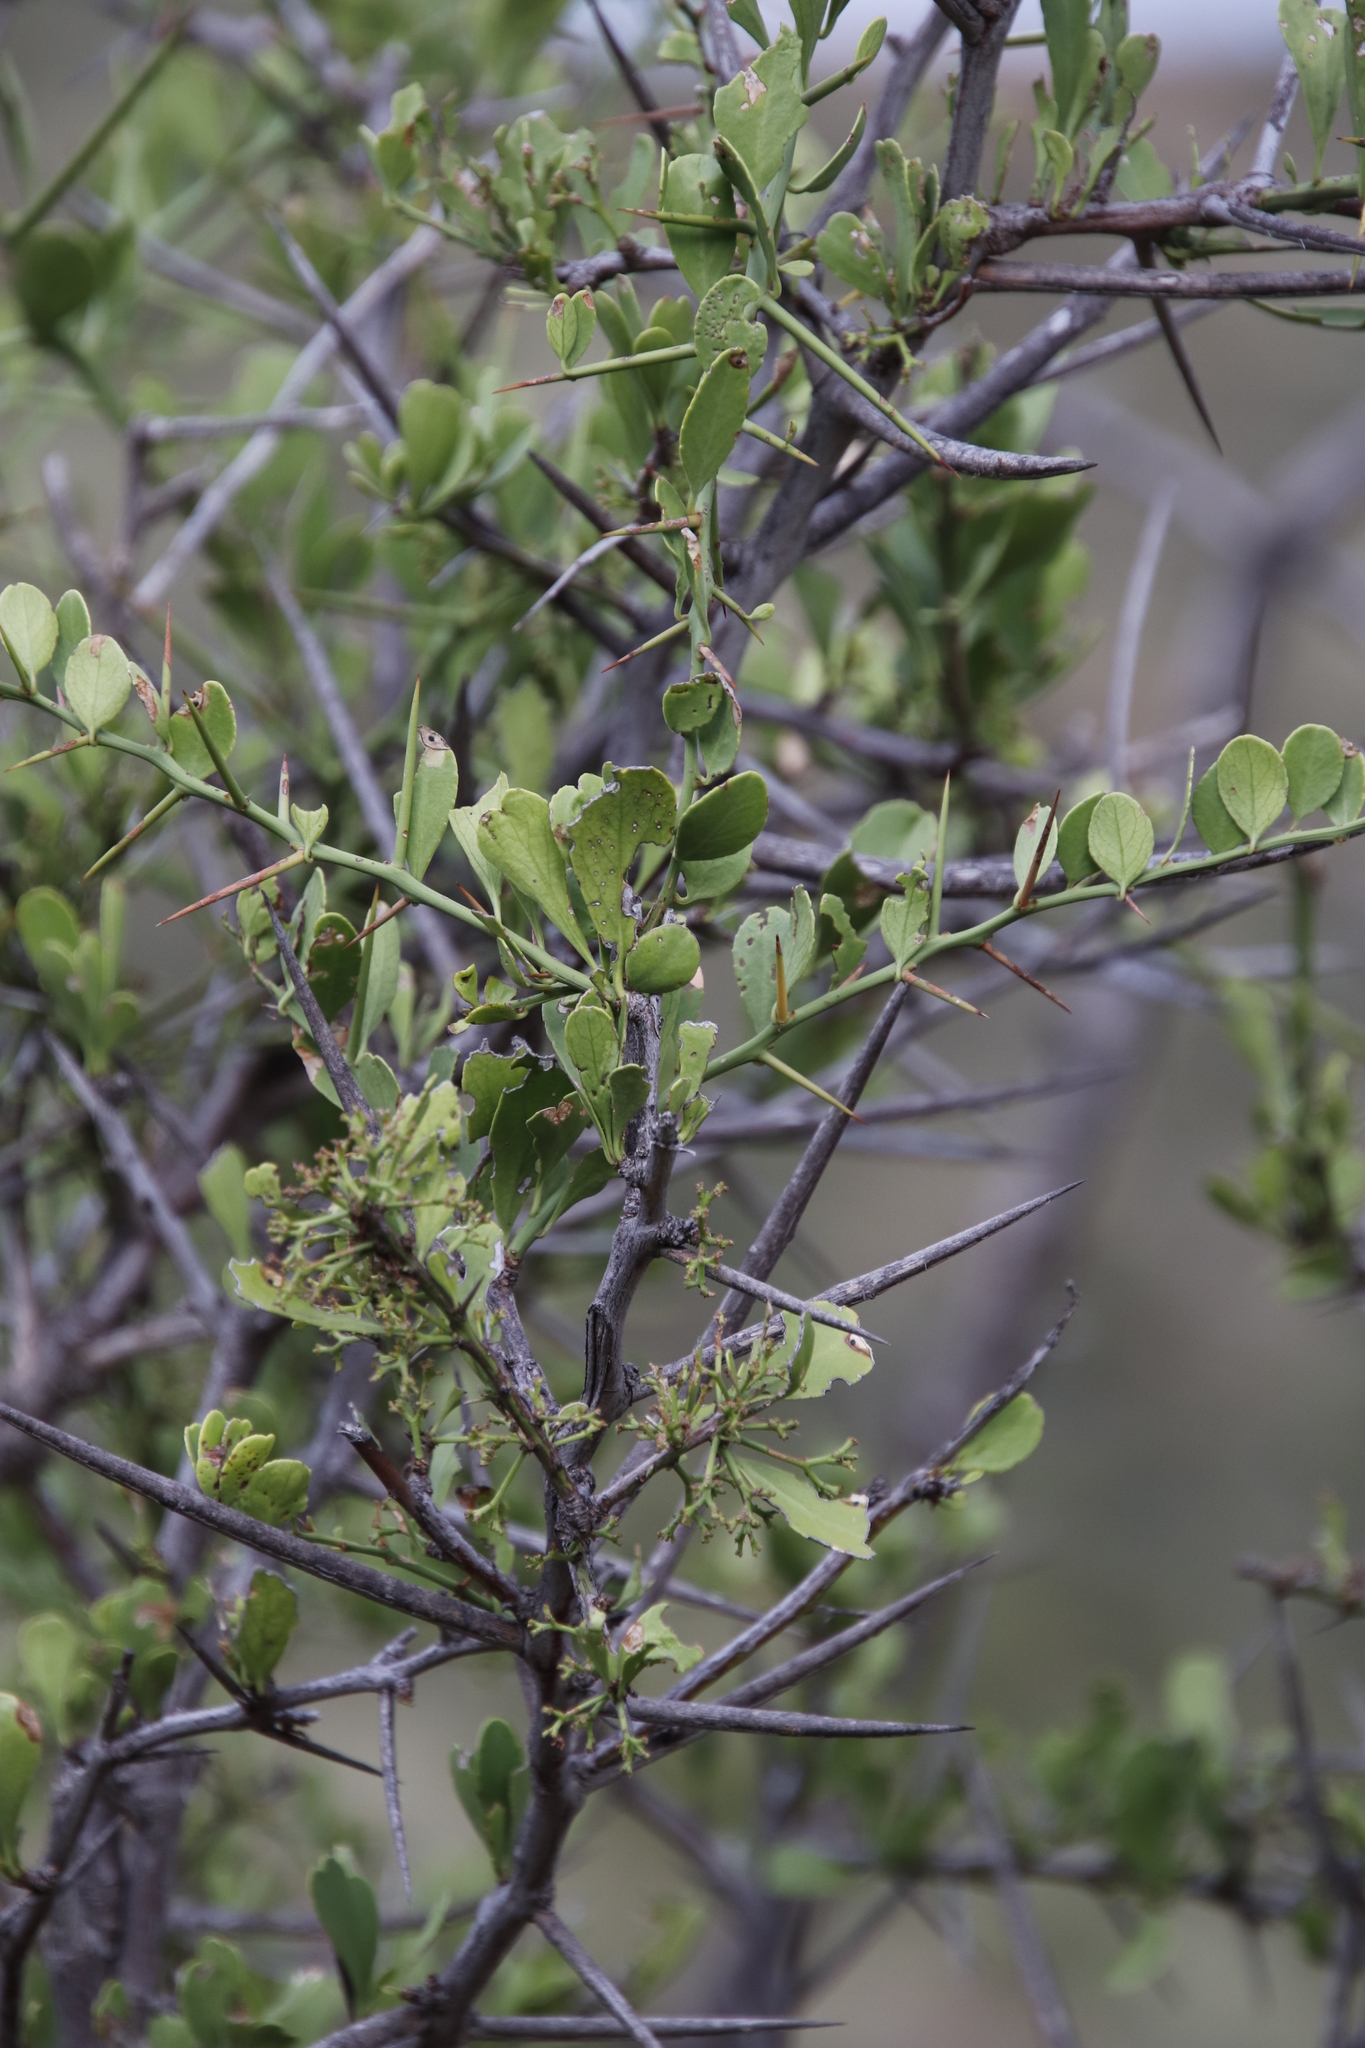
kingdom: Plantae
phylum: Tracheophyta
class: Magnoliopsida
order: Celastrales
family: Celastraceae
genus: Gymnosporia
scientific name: Gymnosporia buxifolia
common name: Common spike-thorn
